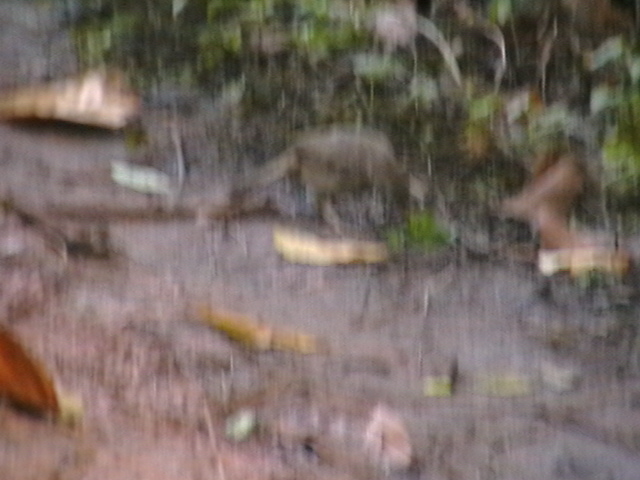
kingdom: Animalia
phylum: Chordata
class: Aves
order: Passeriformes
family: Leiothrichidae
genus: Turdoides
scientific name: Turdoides striata
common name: Jungle babbler
